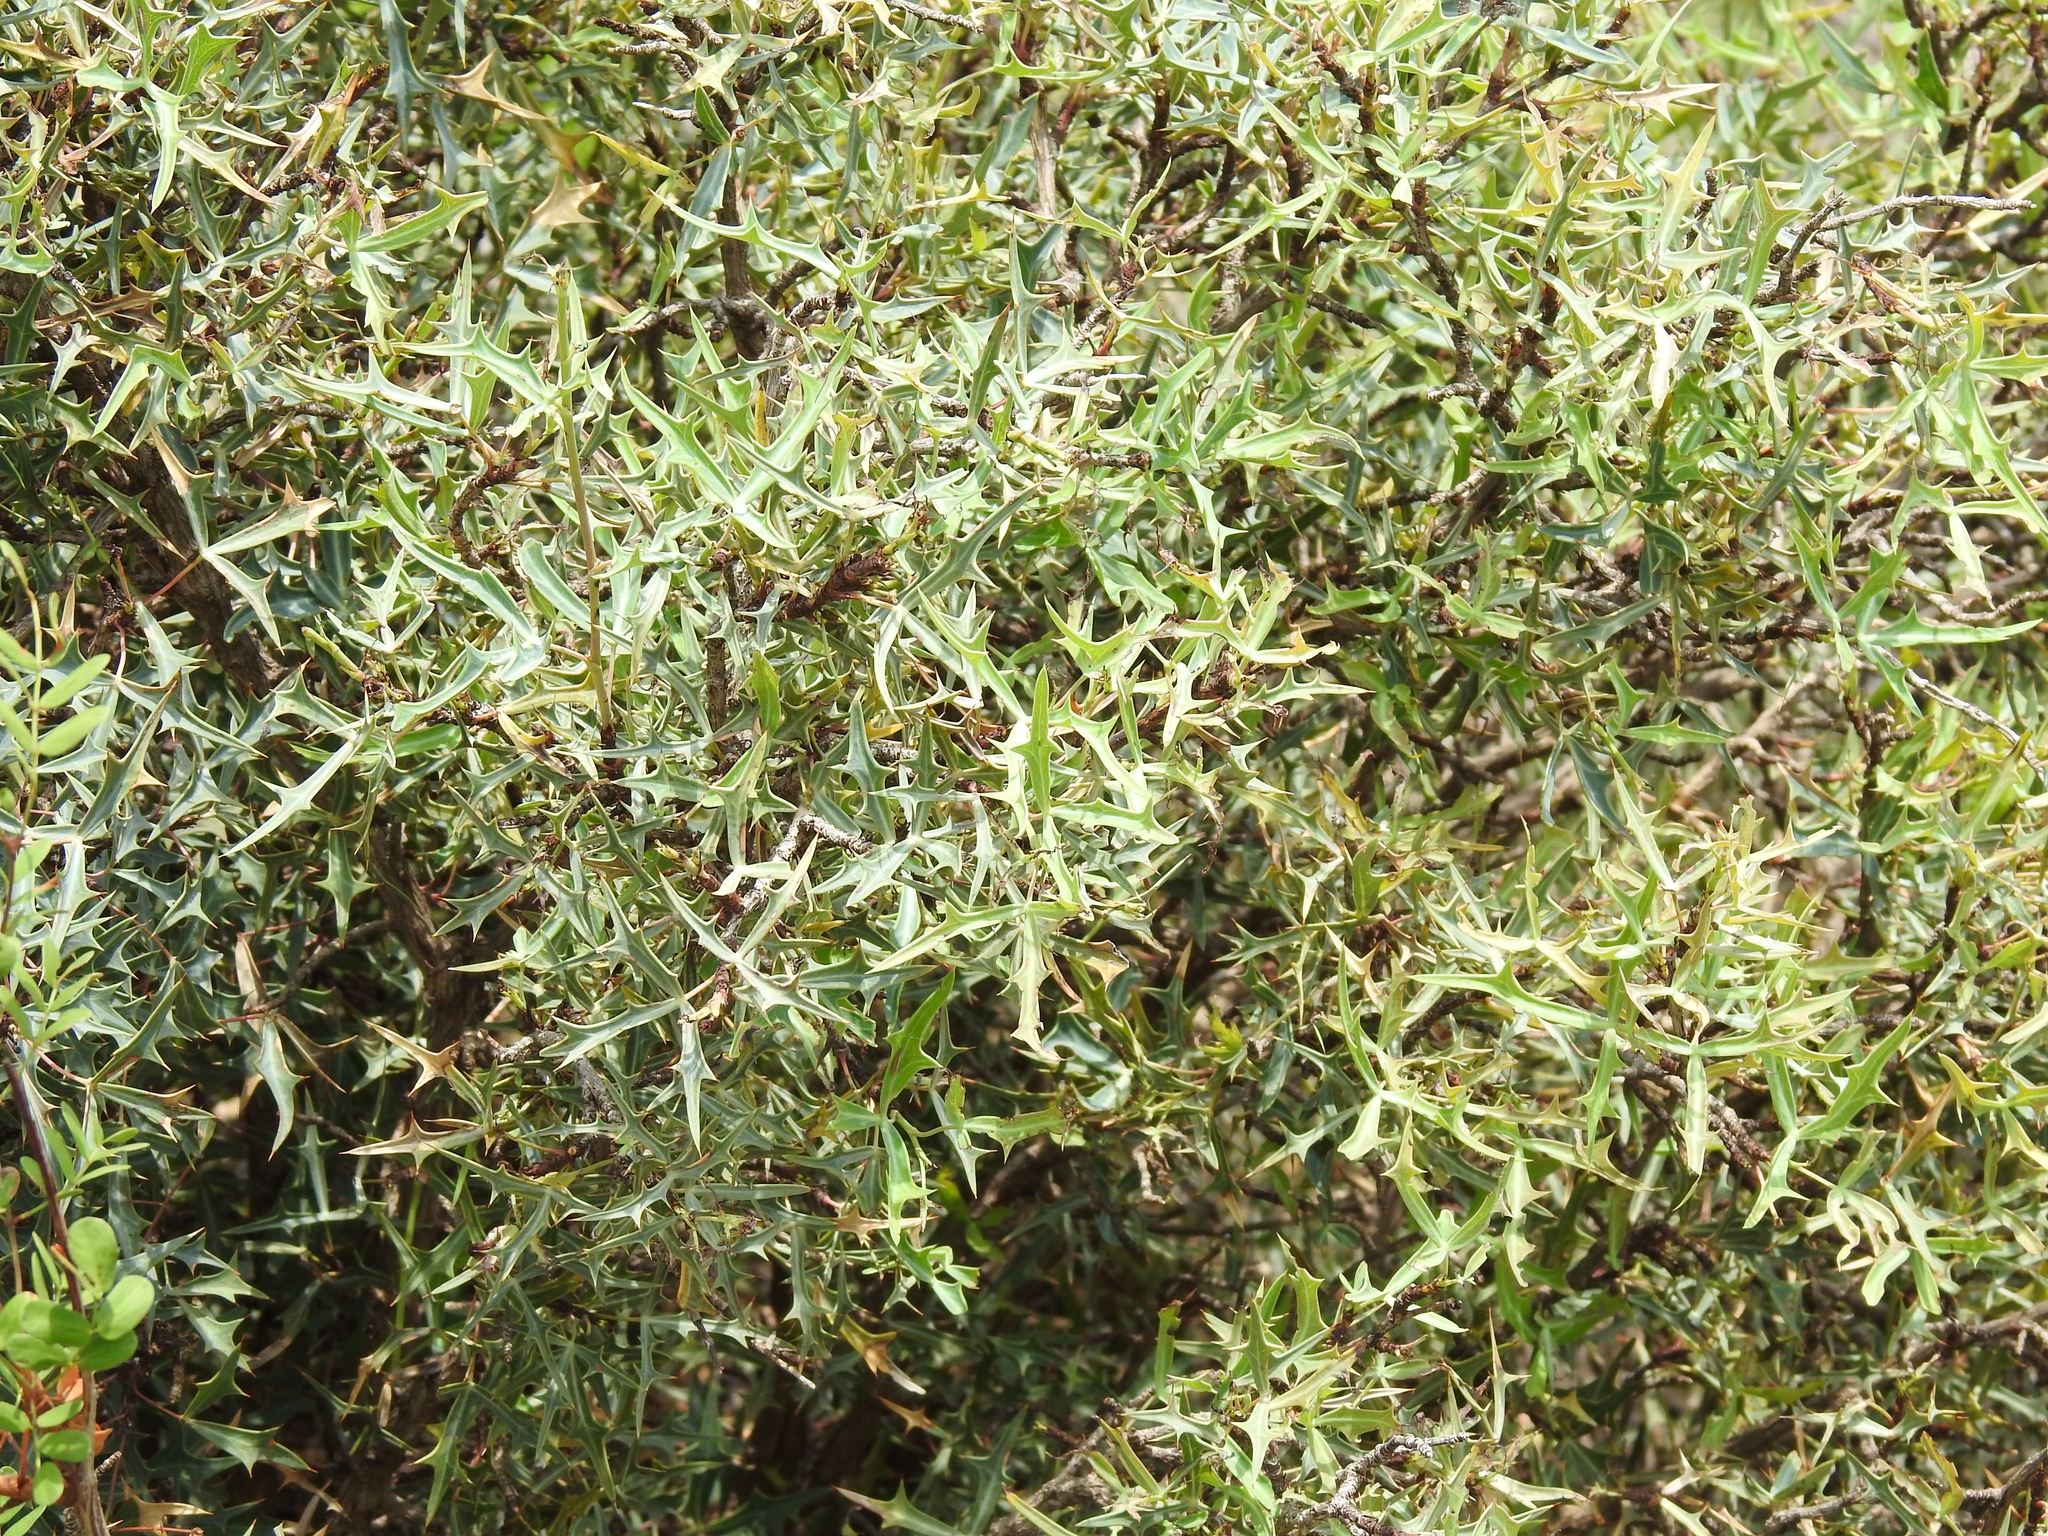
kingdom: Plantae
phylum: Tracheophyta
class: Magnoliopsida
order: Ranunculales
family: Berberidaceae
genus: Alloberberis
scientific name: Alloberberis trifoliolata
